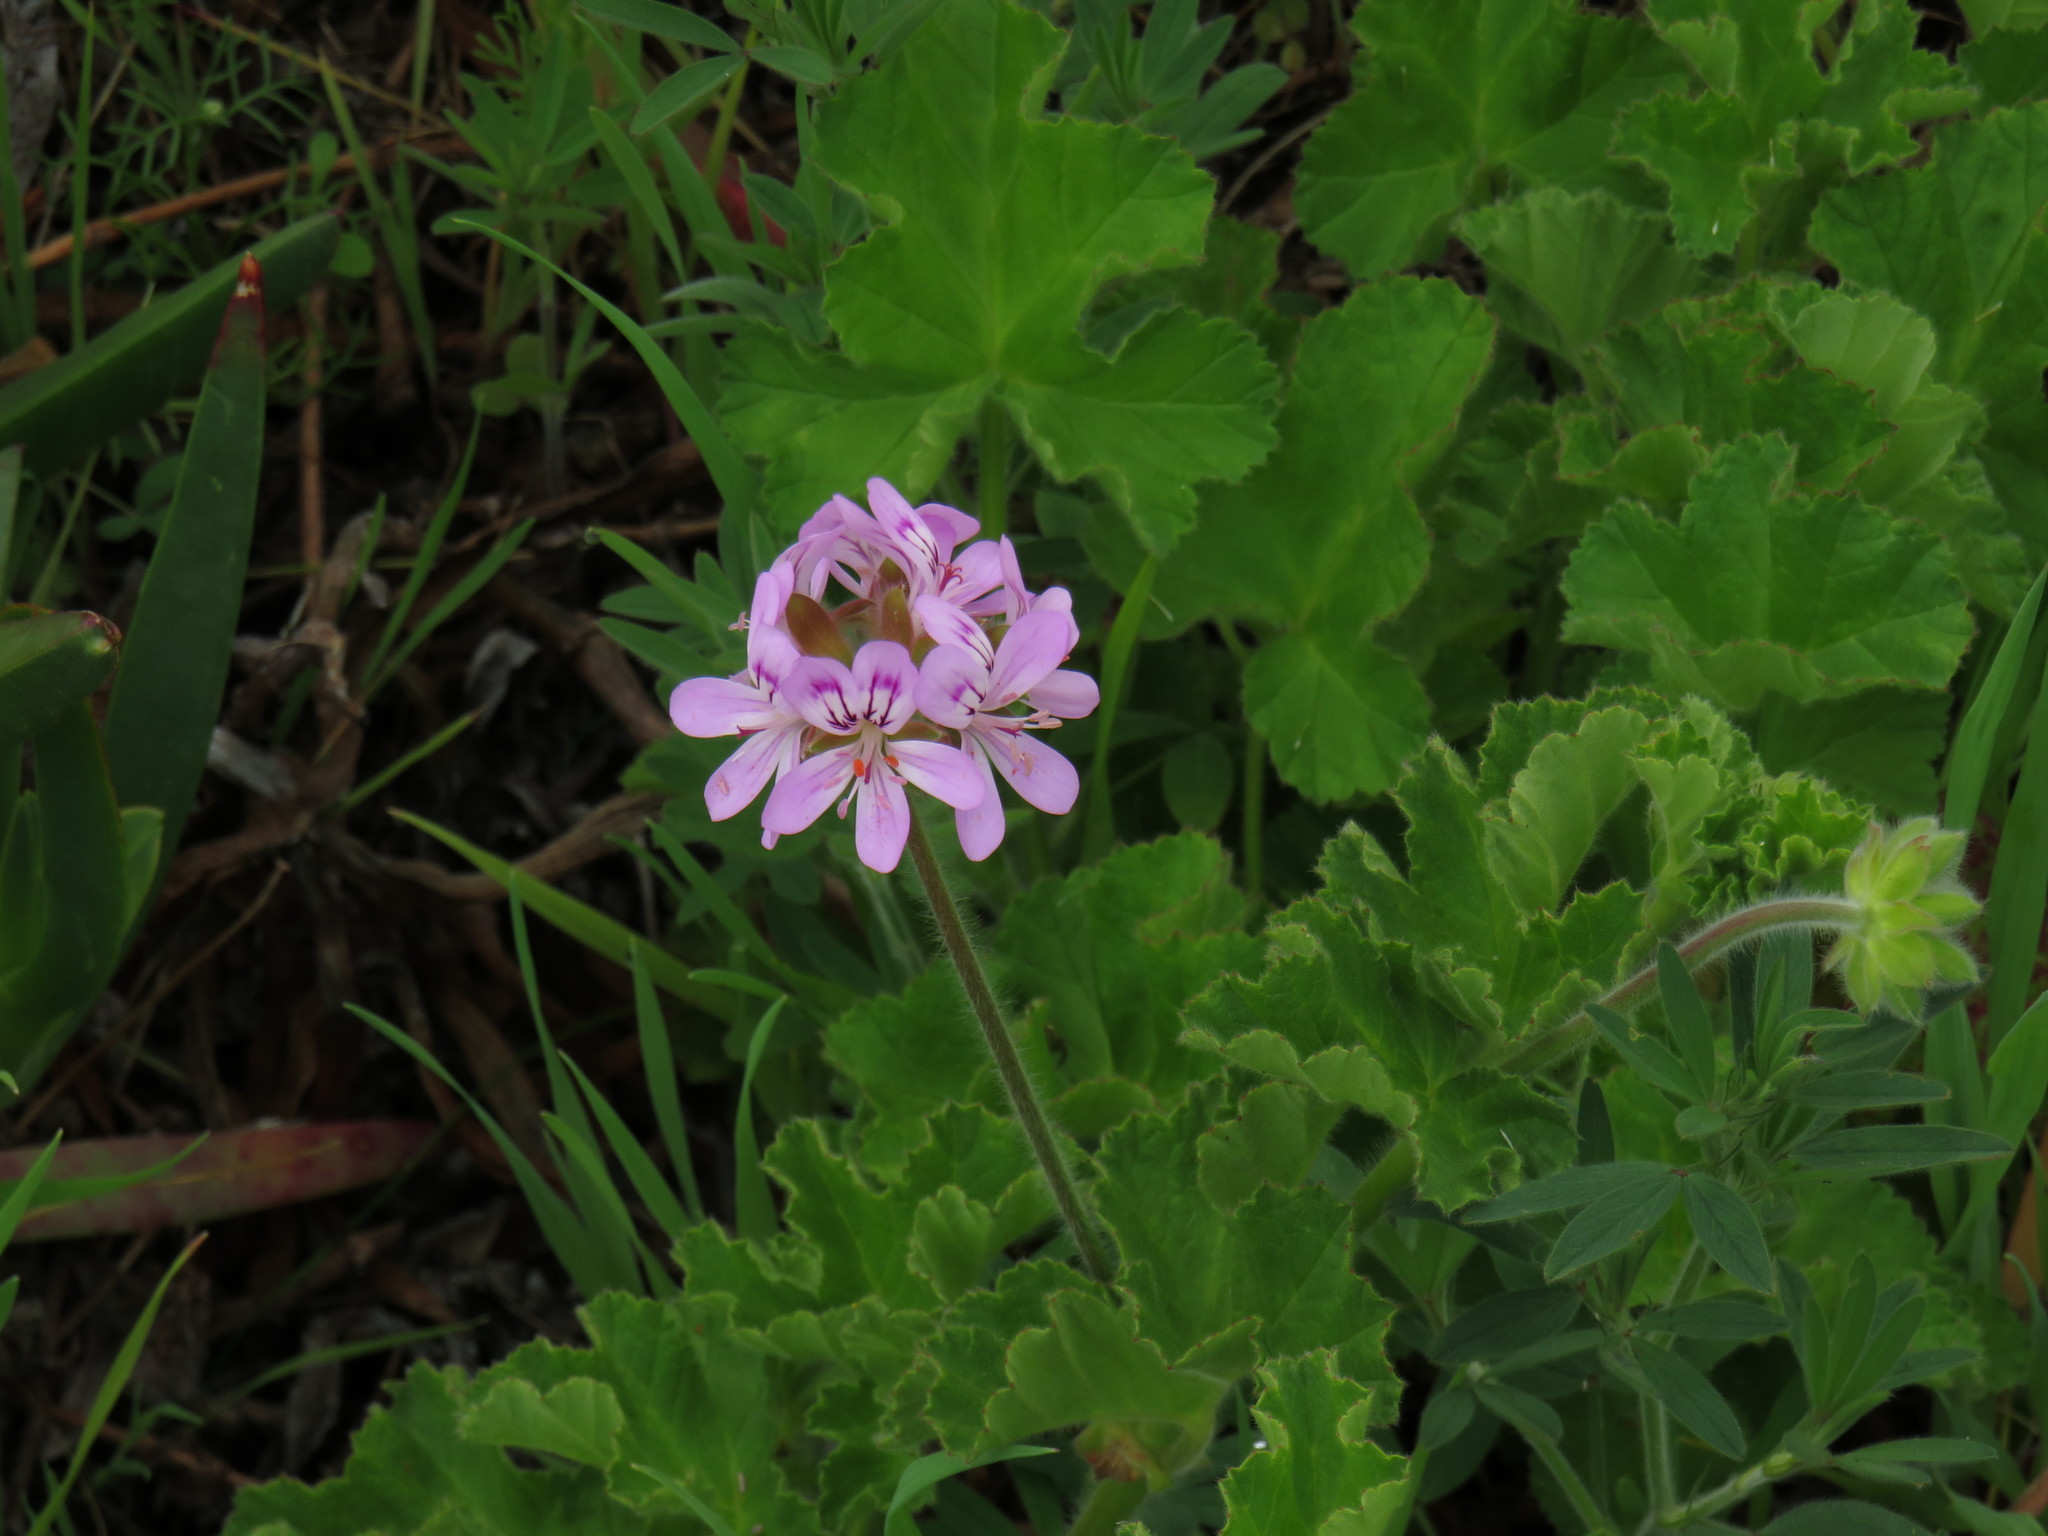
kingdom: Plantae
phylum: Tracheophyta
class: Magnoliopsida
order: Geraniales
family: Geraniaceae
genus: Pelargonium
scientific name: Pelargonium capitatum
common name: Rose scented geranium
